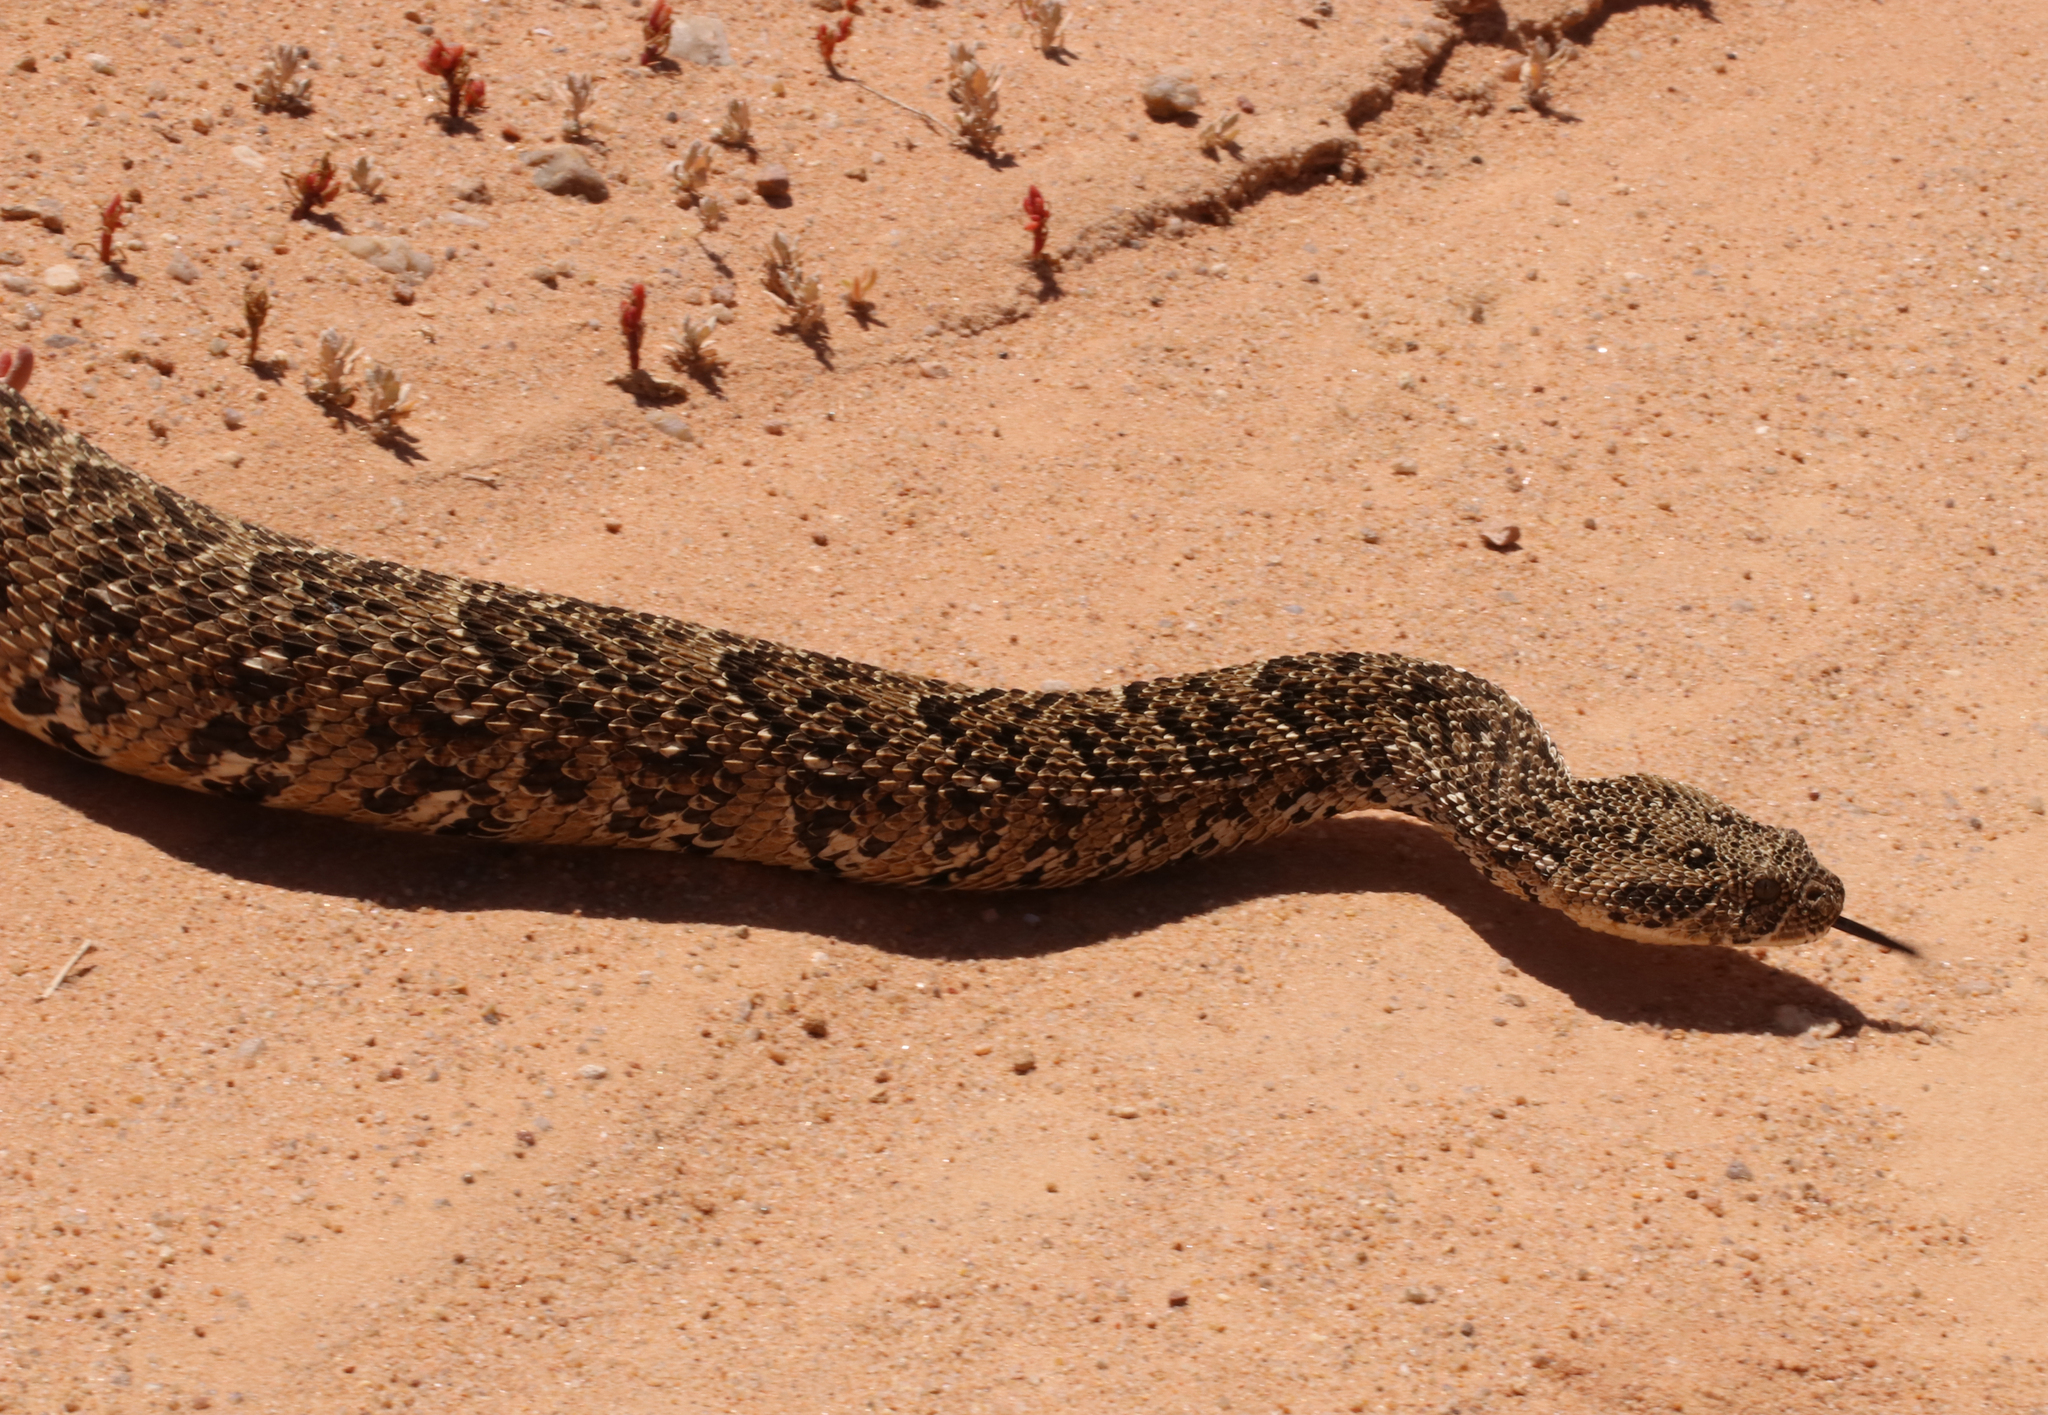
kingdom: Animalia
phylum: Chordata
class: Squamata
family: Viperidae
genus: Bitis
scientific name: Bitis arietans
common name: Puff adder
